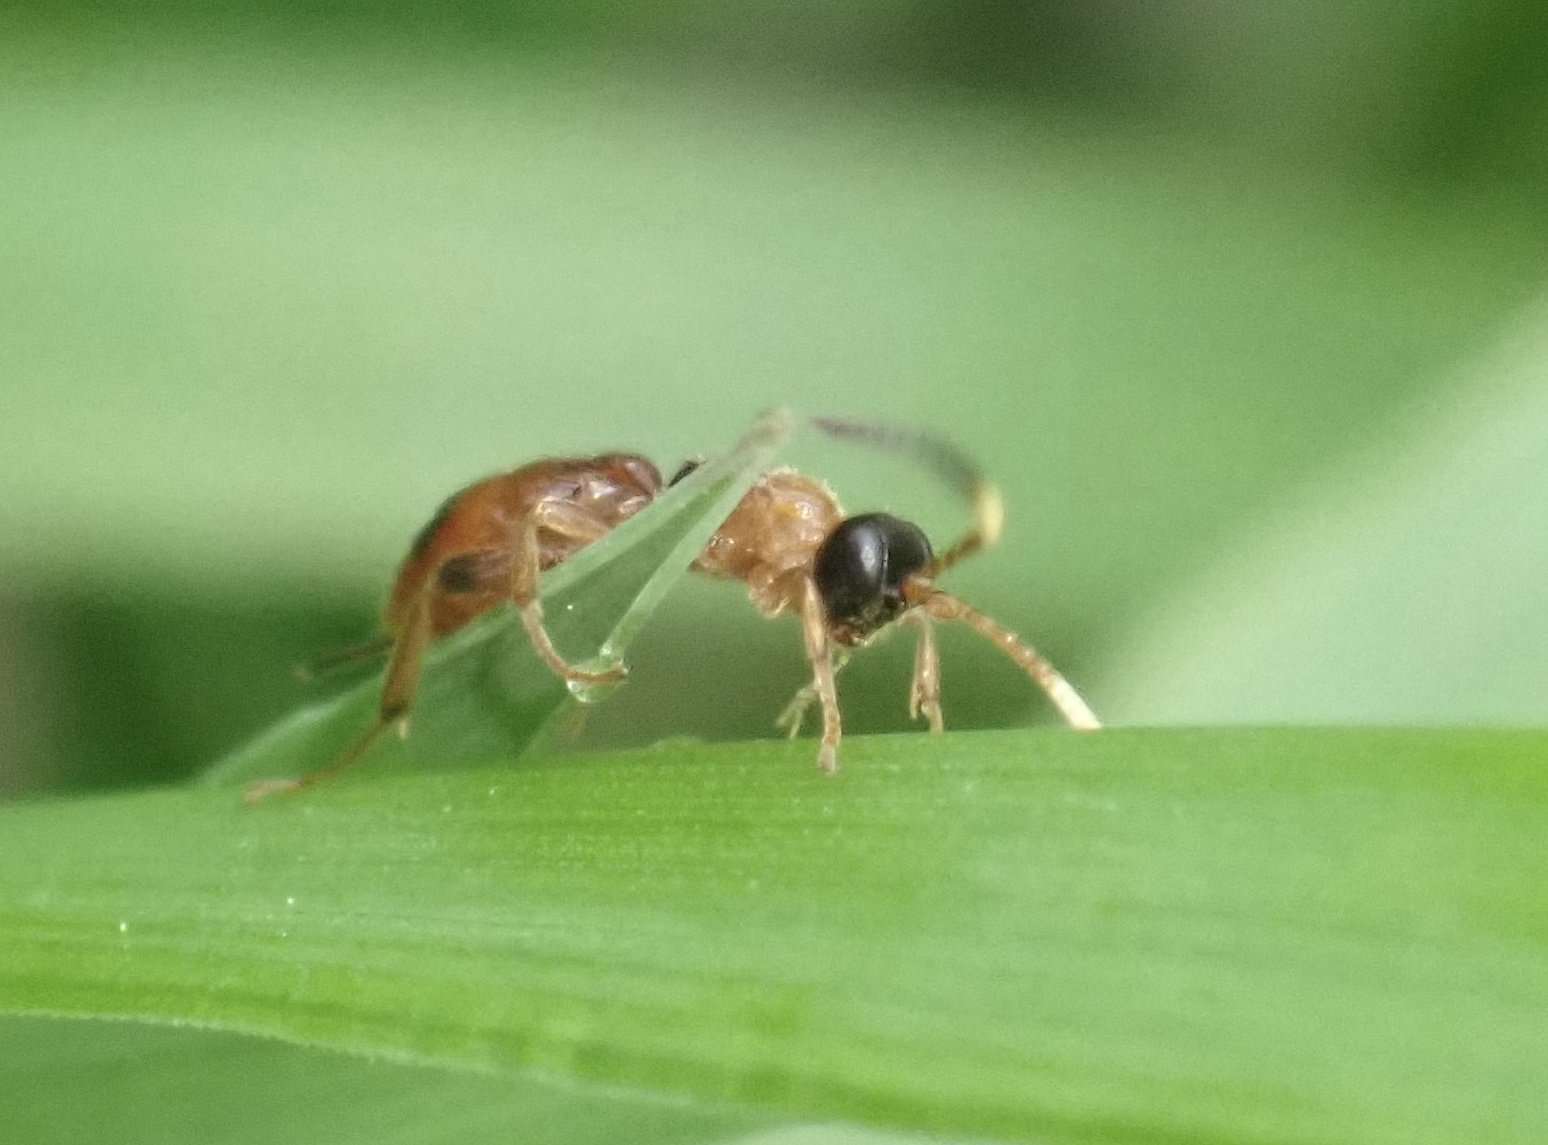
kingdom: Animalia
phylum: Arthropoda
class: Insecta
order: Hymenoptera
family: Ichneumonidae
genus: Aptesis
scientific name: Aptesis nigrocincta
